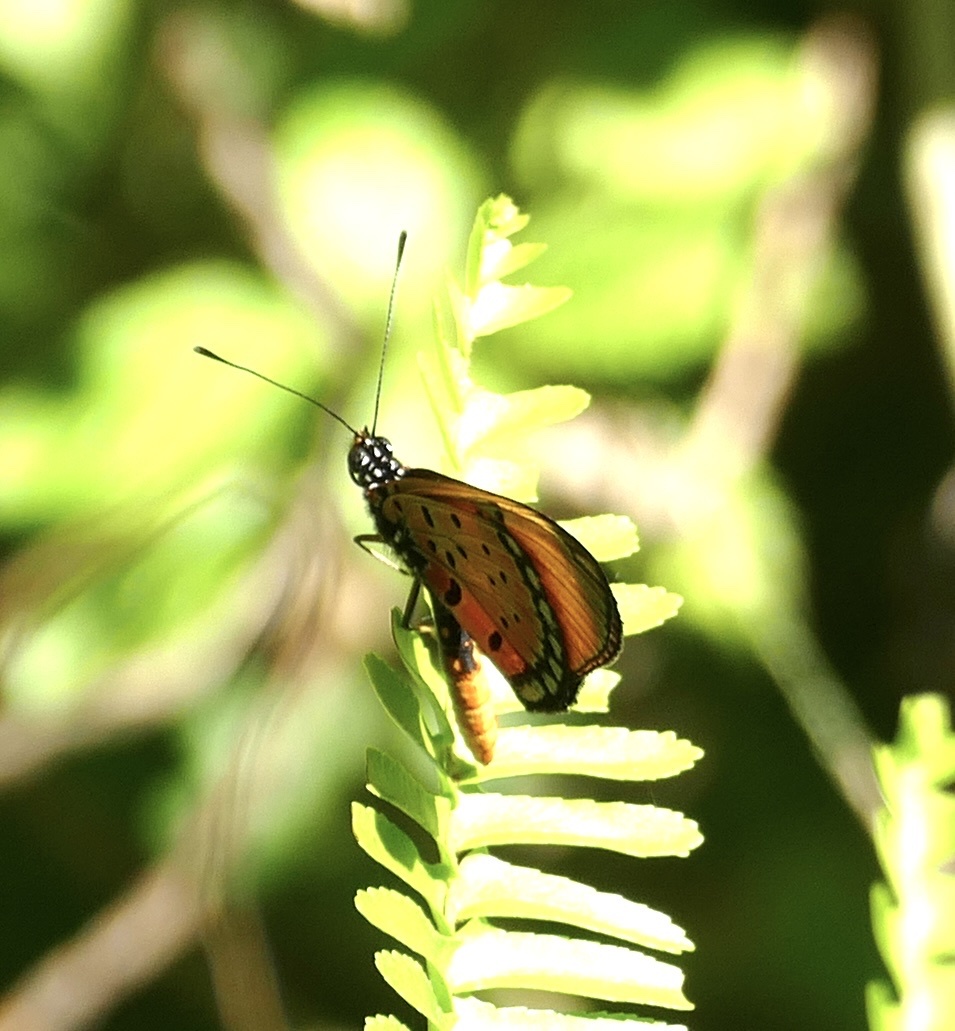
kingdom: Animalia
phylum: Arthropoda
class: Insecta
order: Lepidoptera
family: Nymphalidae
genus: Stephenia
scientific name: Stephenia
